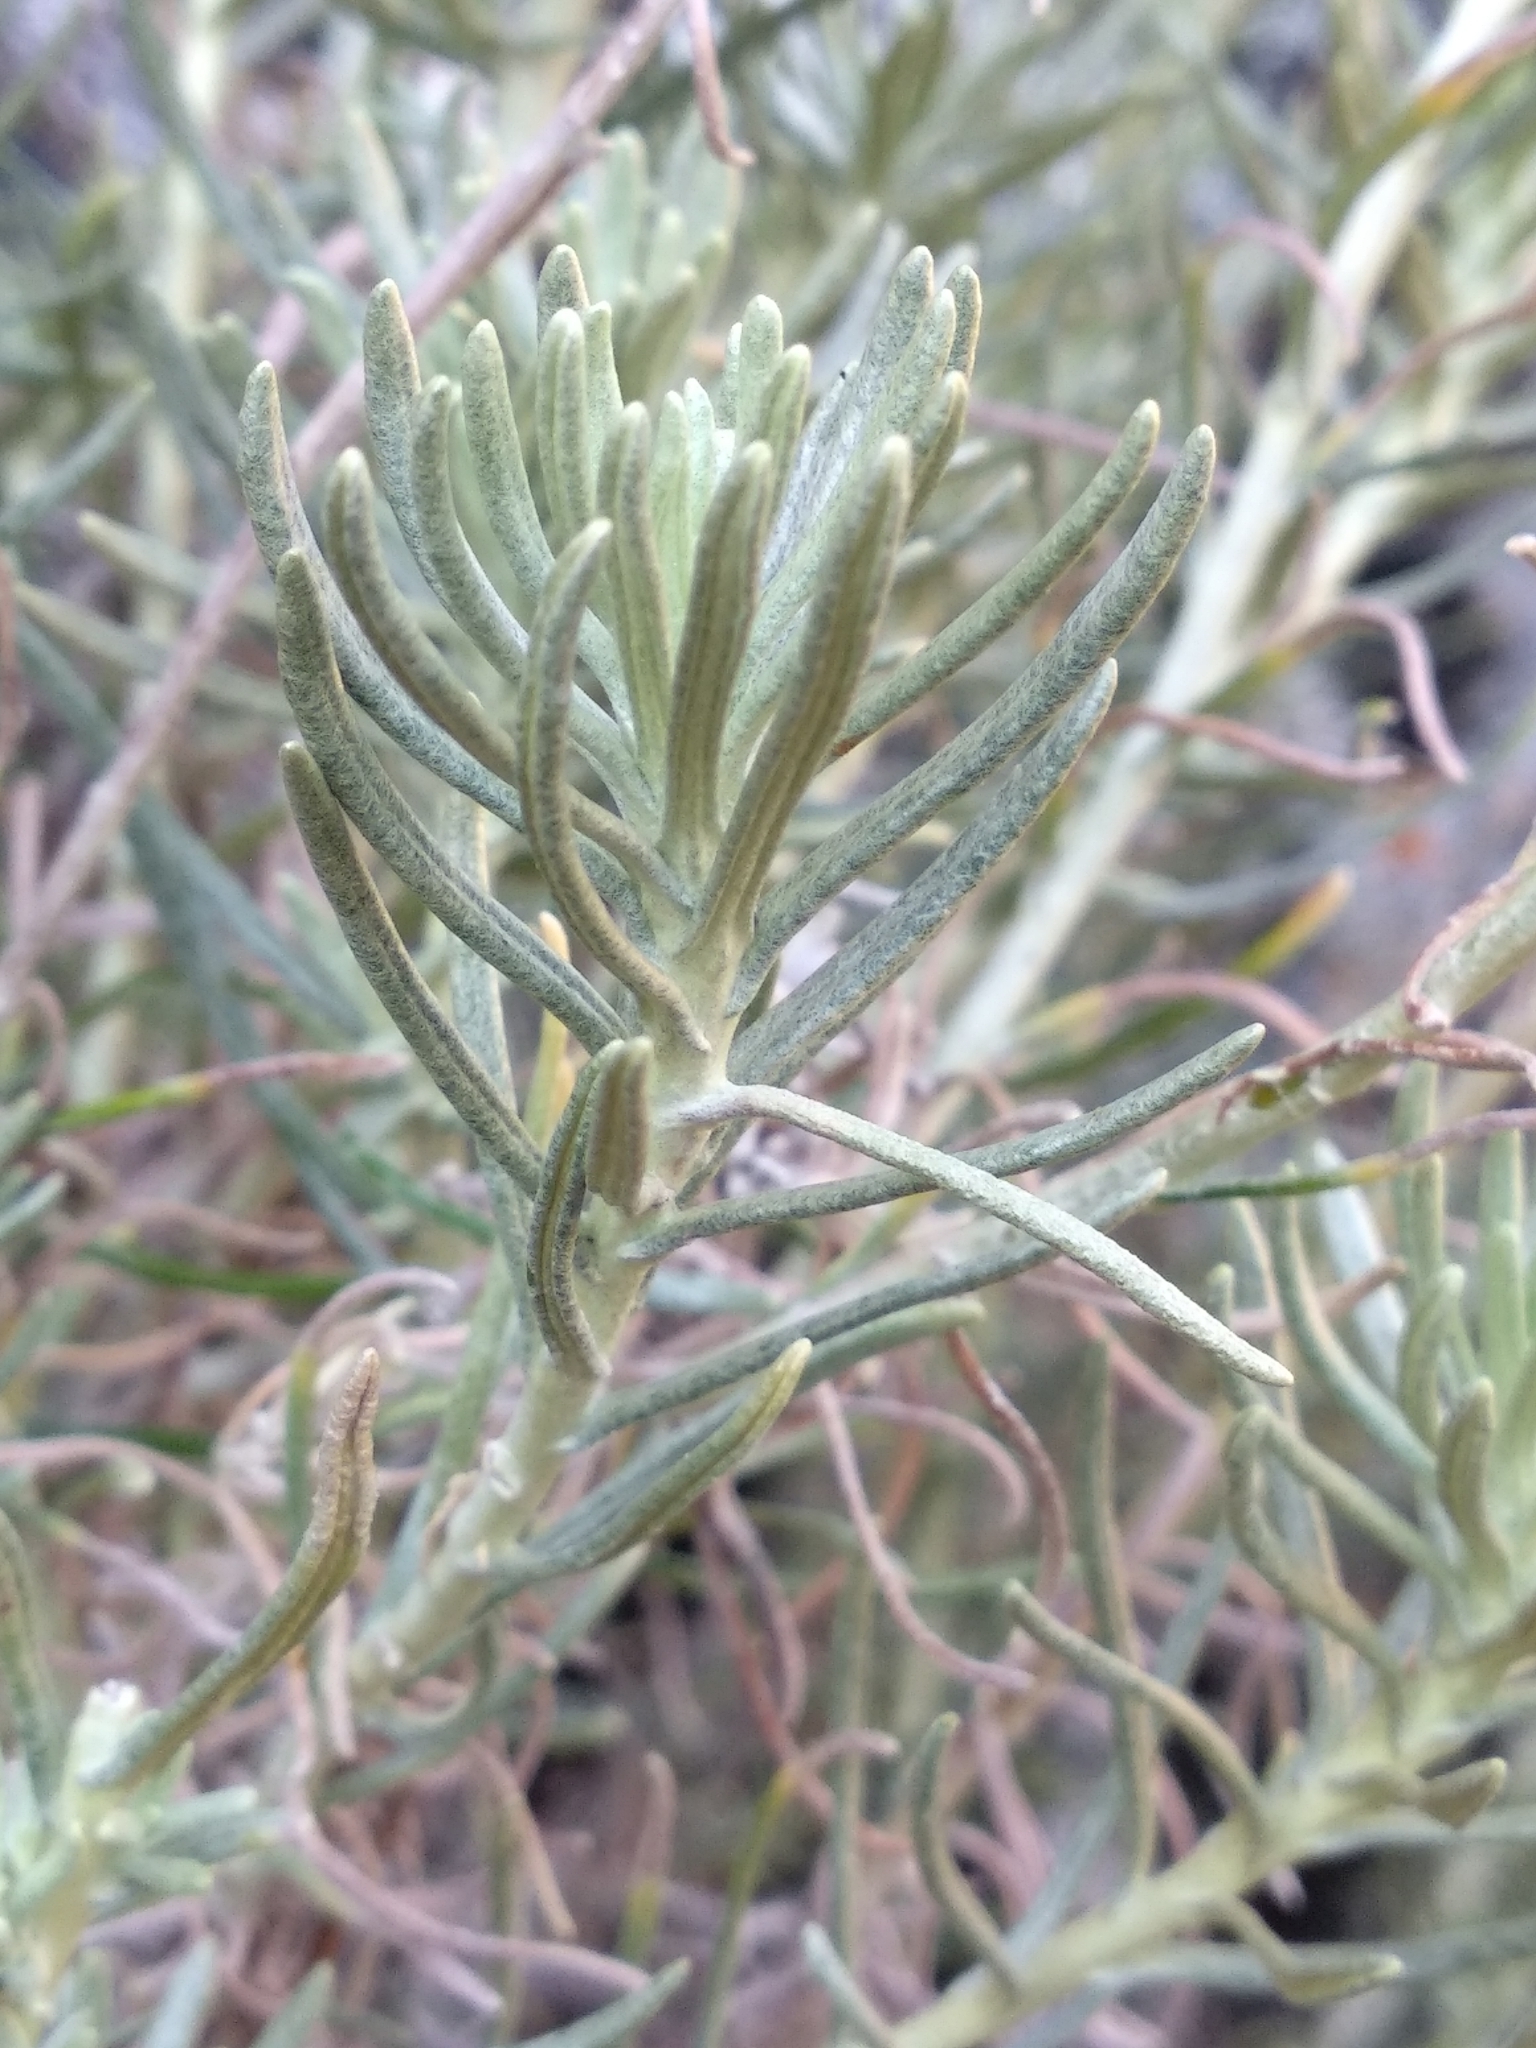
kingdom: Plantae
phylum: Tracheophyta
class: Magnoliopsida
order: Asterales
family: Asteraceae
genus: Helichrysum
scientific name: Helichrysum italicum
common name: Curryplant
